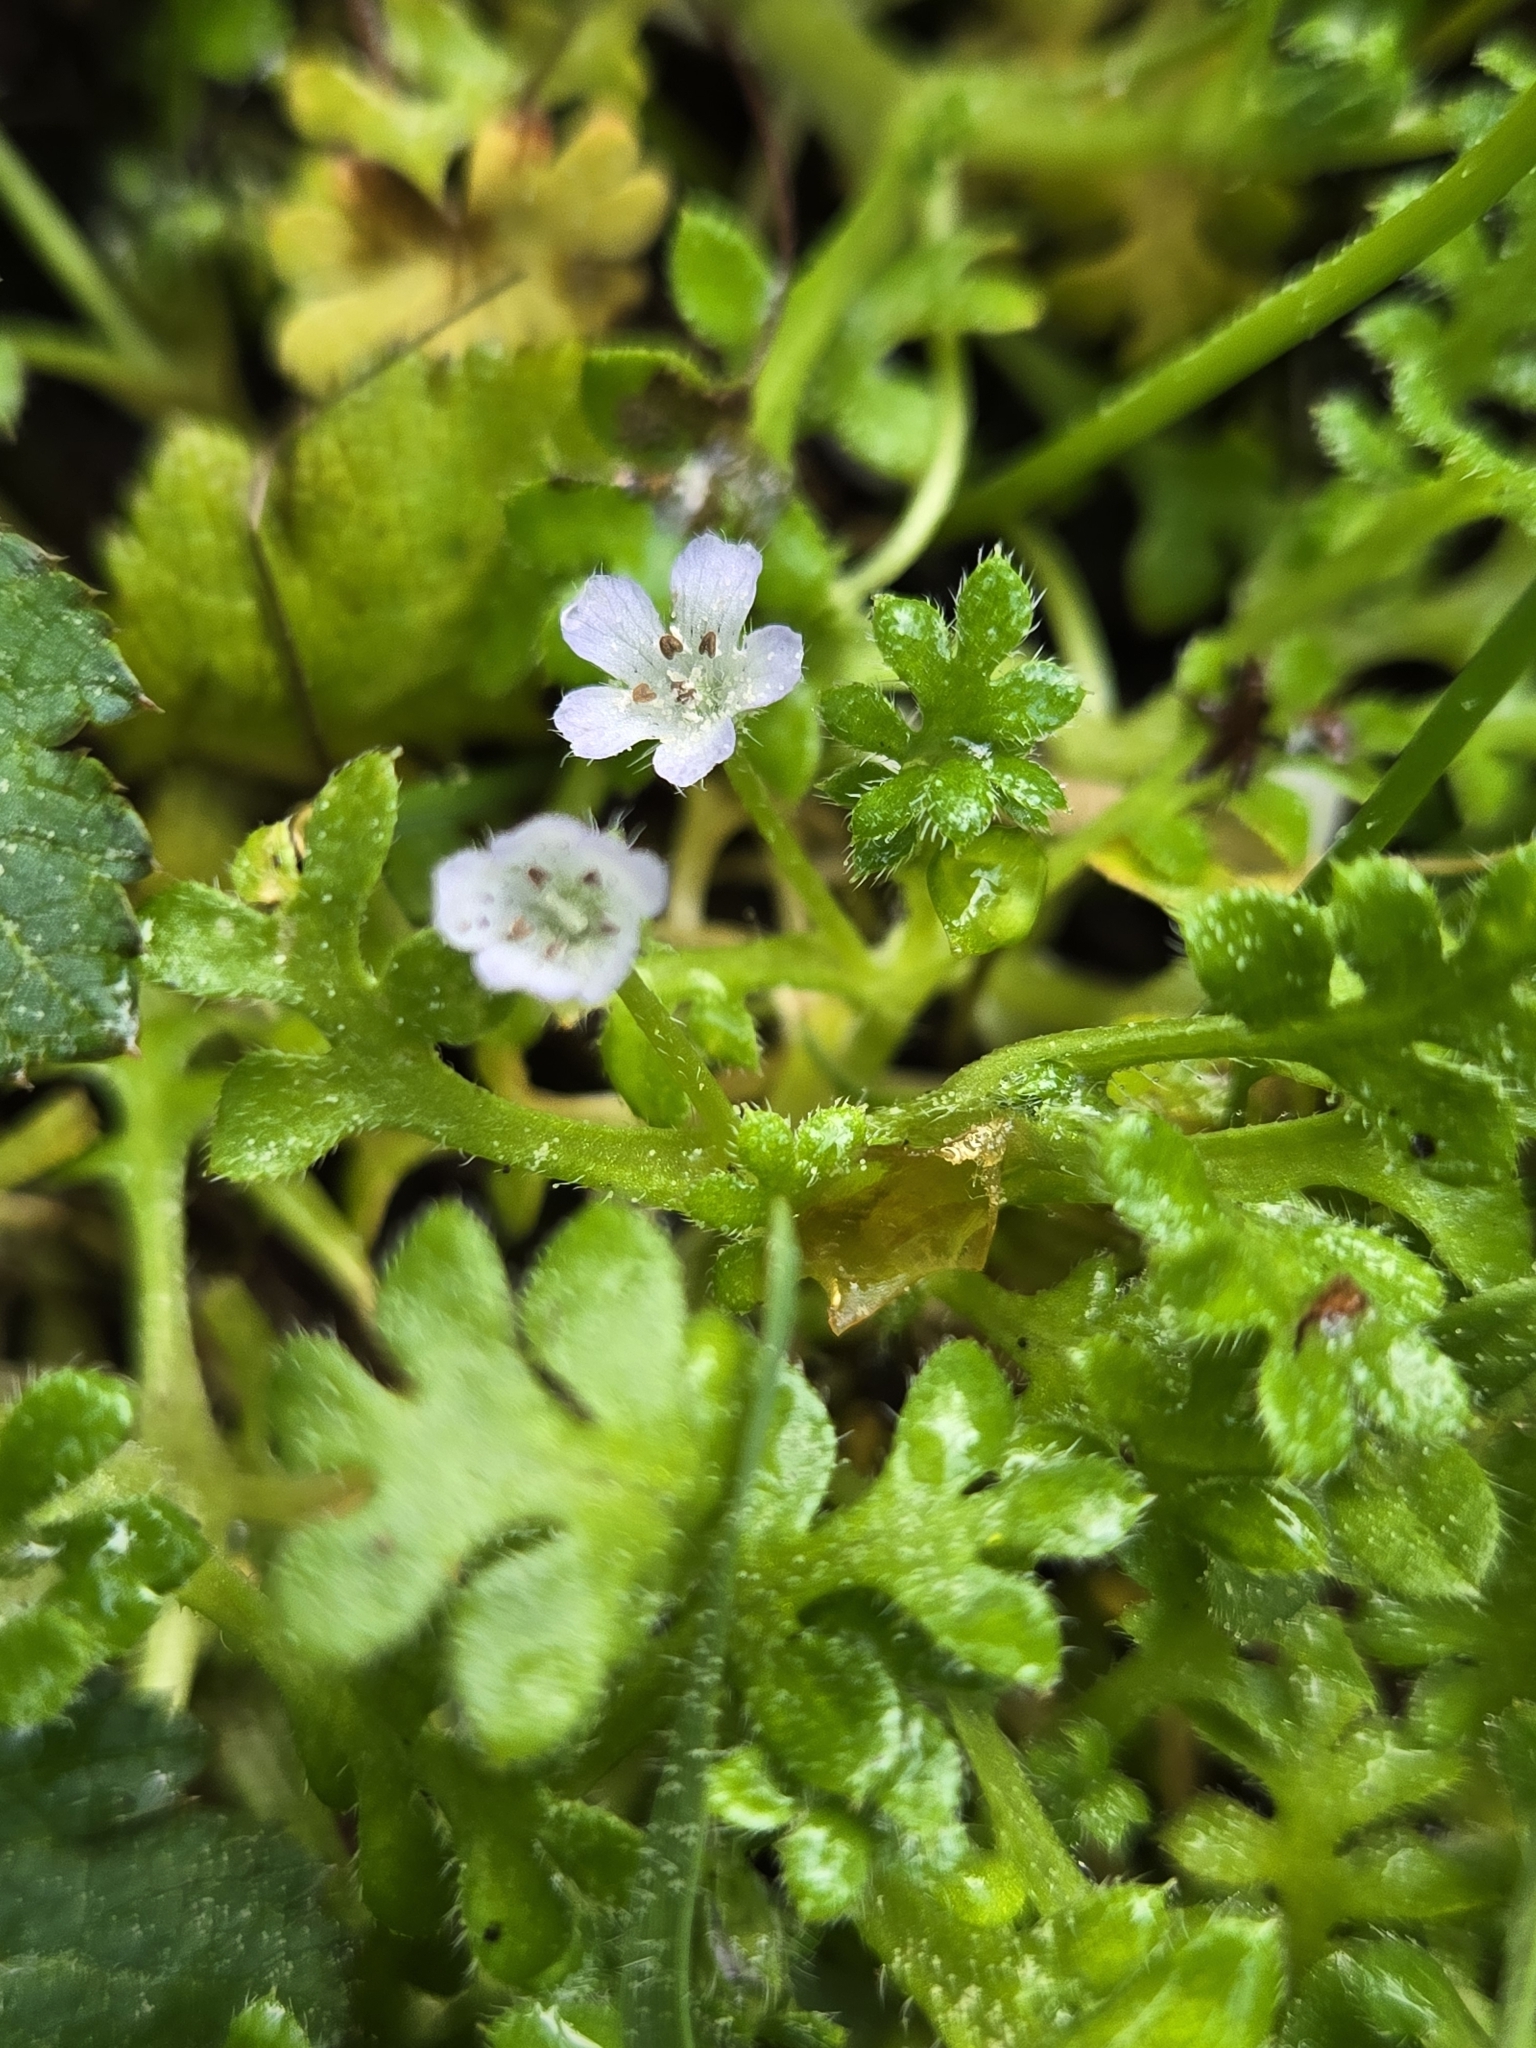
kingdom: Plantae
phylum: Tracheophyta
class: Magnoliopsida
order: Boraginales
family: Hydrophyllaceae
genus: Nemophila
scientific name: Nemophila pedunculata
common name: Little-foot baby-blue-eyes
